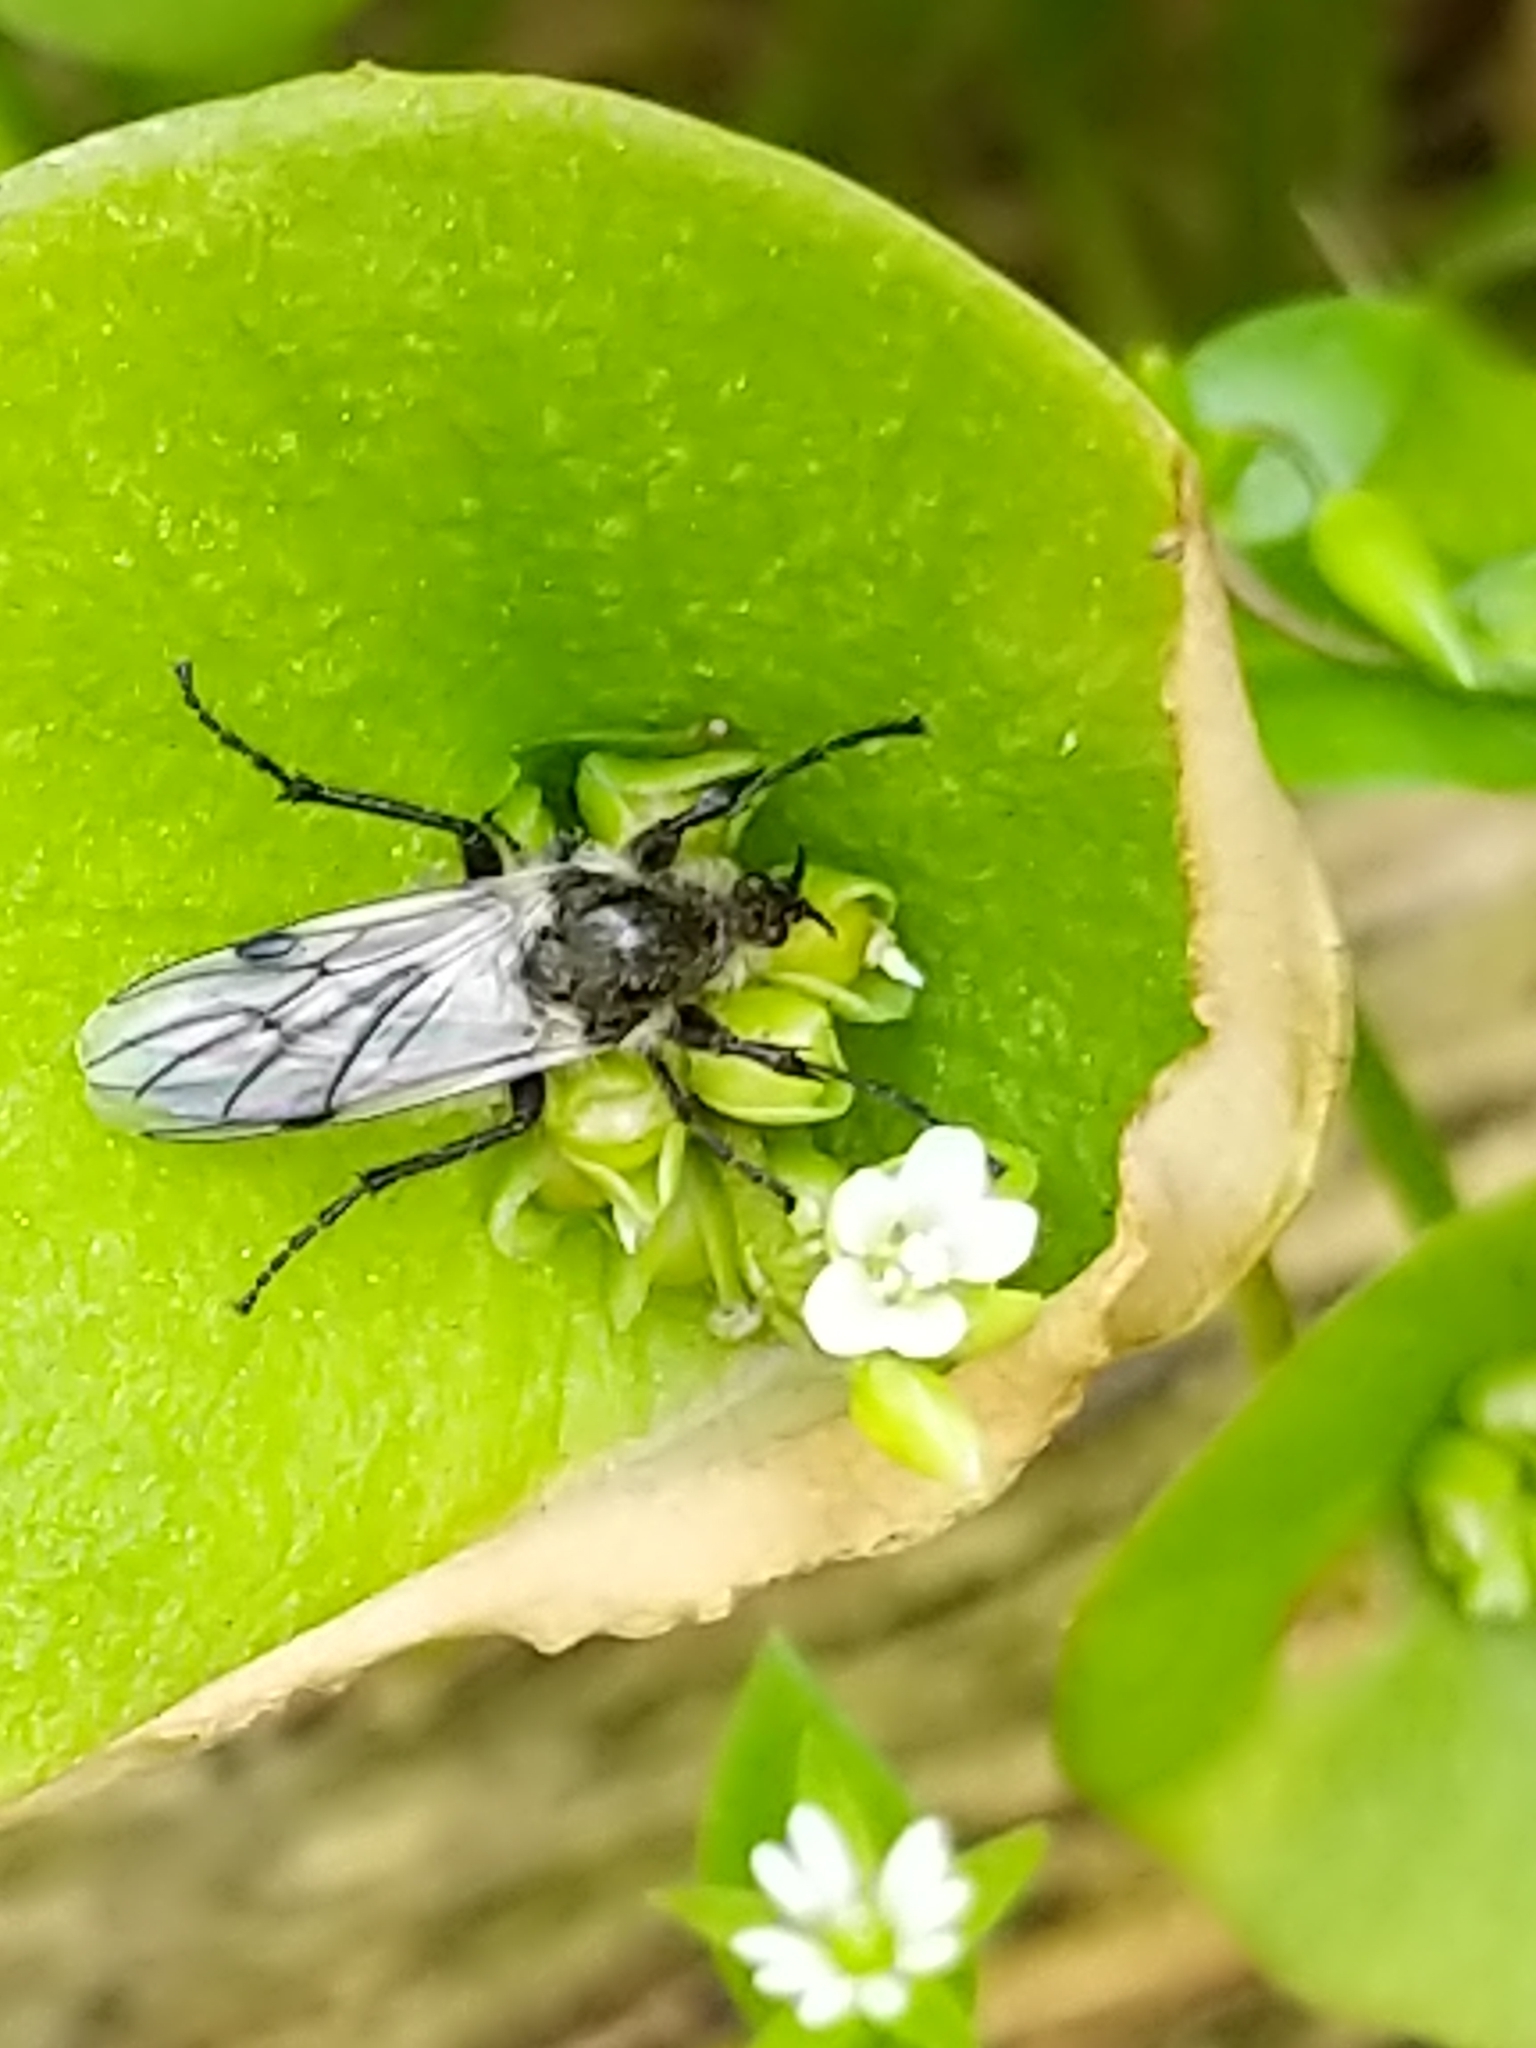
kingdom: Animalia
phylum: Arthropoda
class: Insecta
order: Diptera
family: Bibionidae
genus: Bibio
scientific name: Bibio albipennis
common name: White-winged march fly
